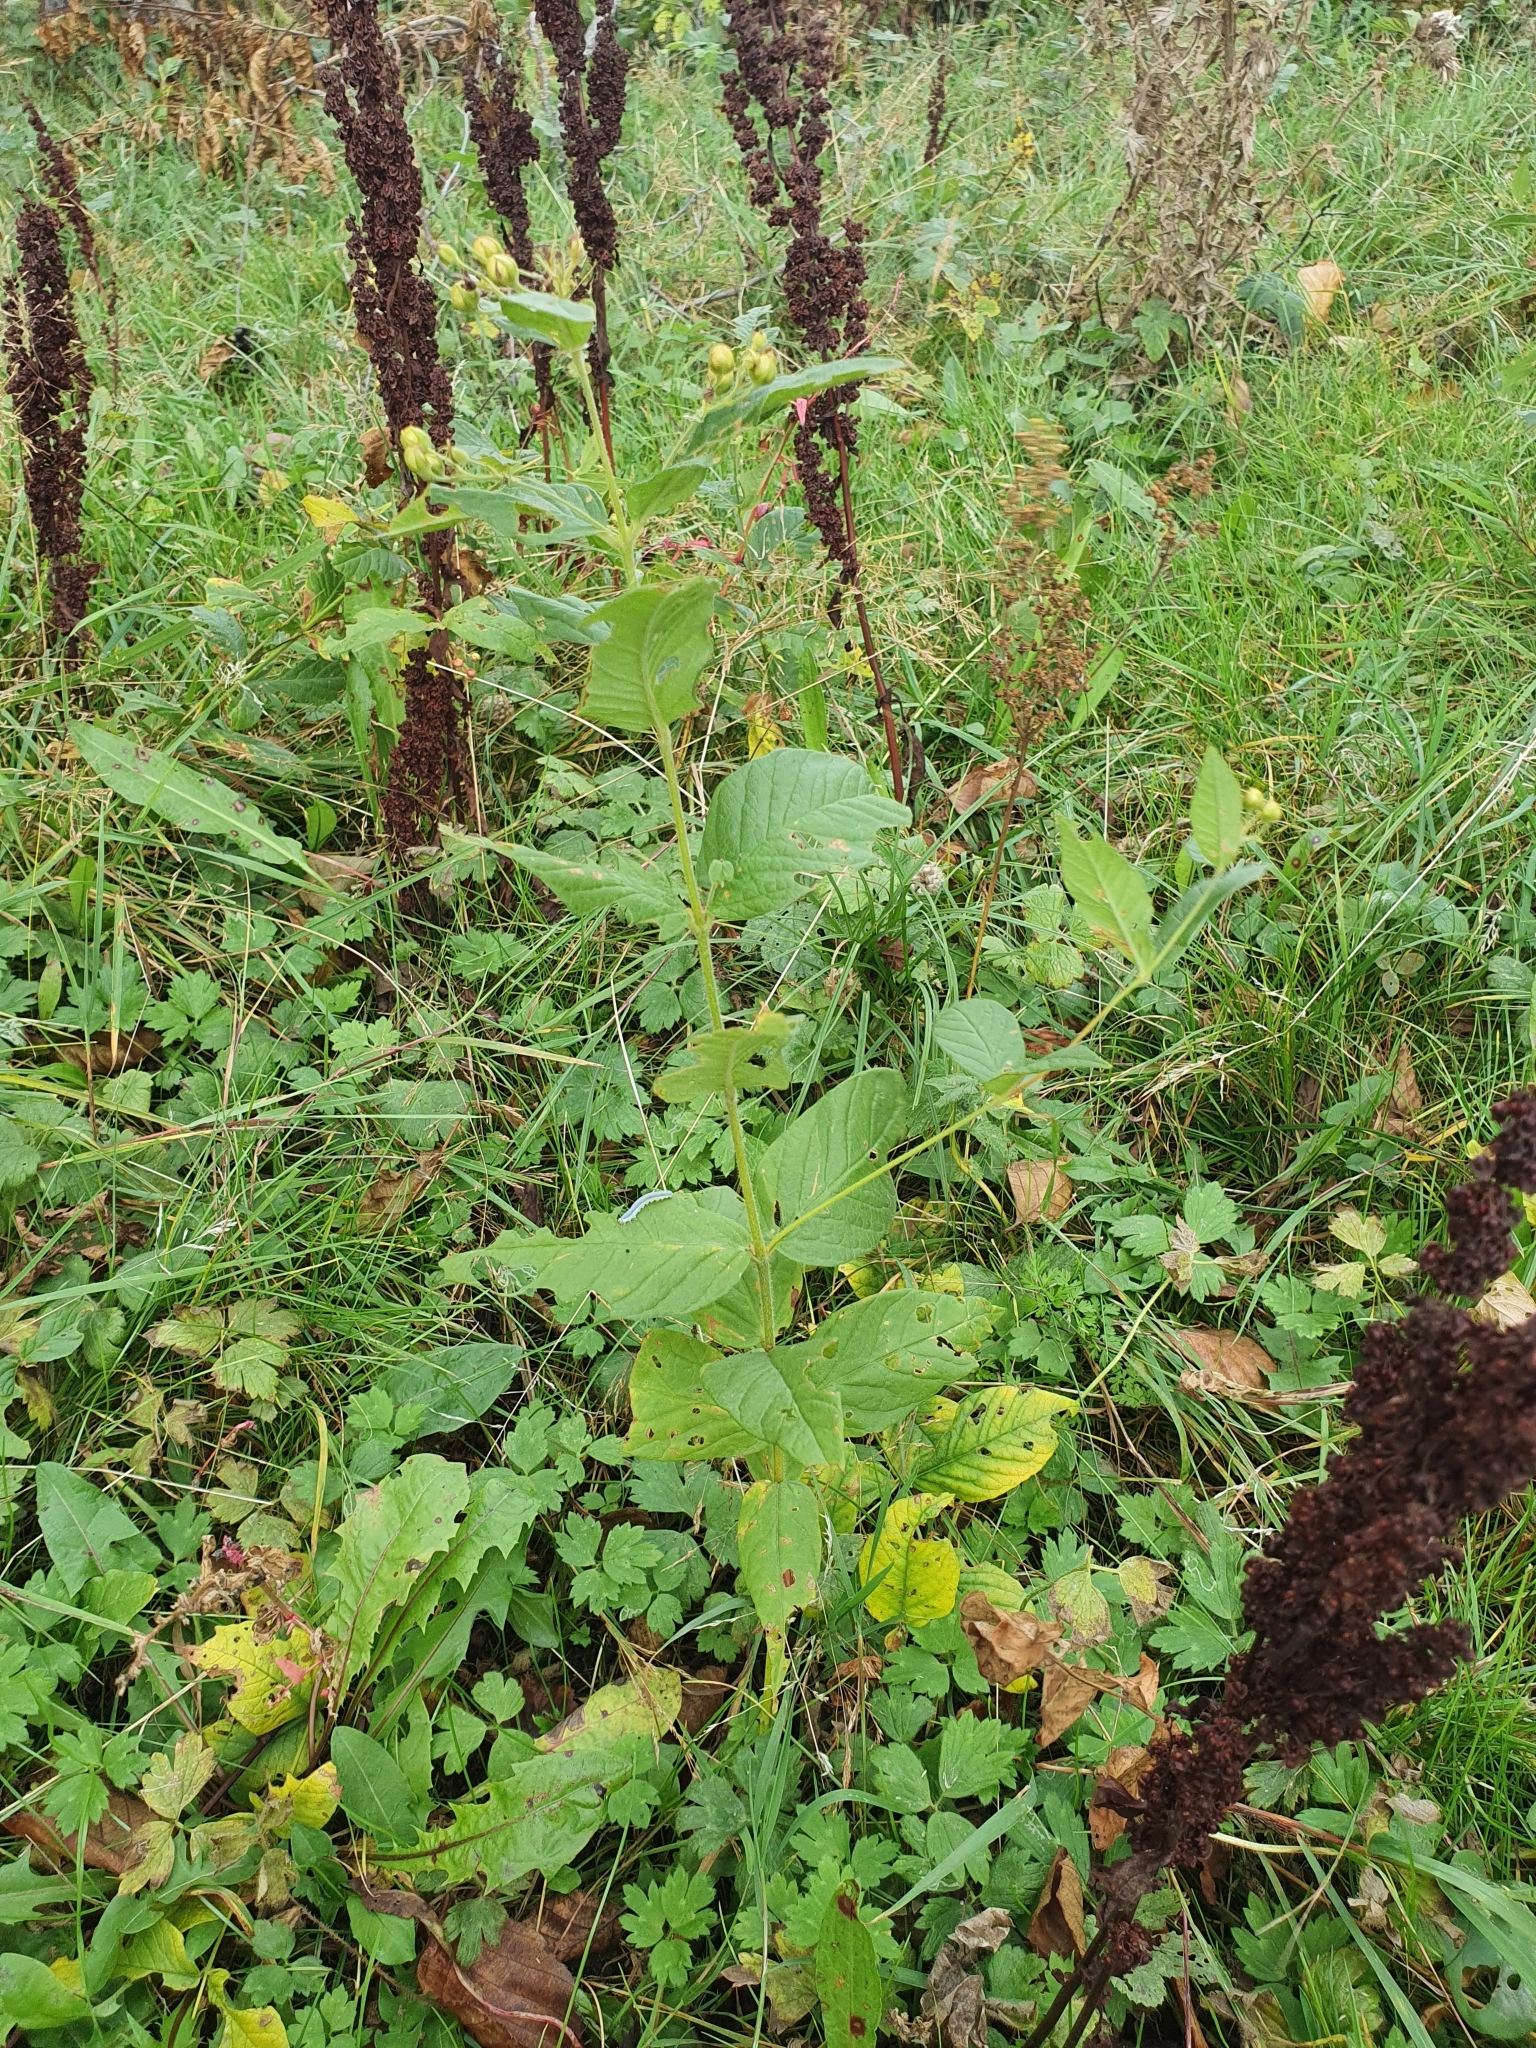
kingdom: Plantae
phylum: Tracheophyta
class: Magnoliopsida
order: Ericales
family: Primulaceae
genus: Lysimachia
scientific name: Lysimachia vulgaris
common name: Yellow loosestrife
